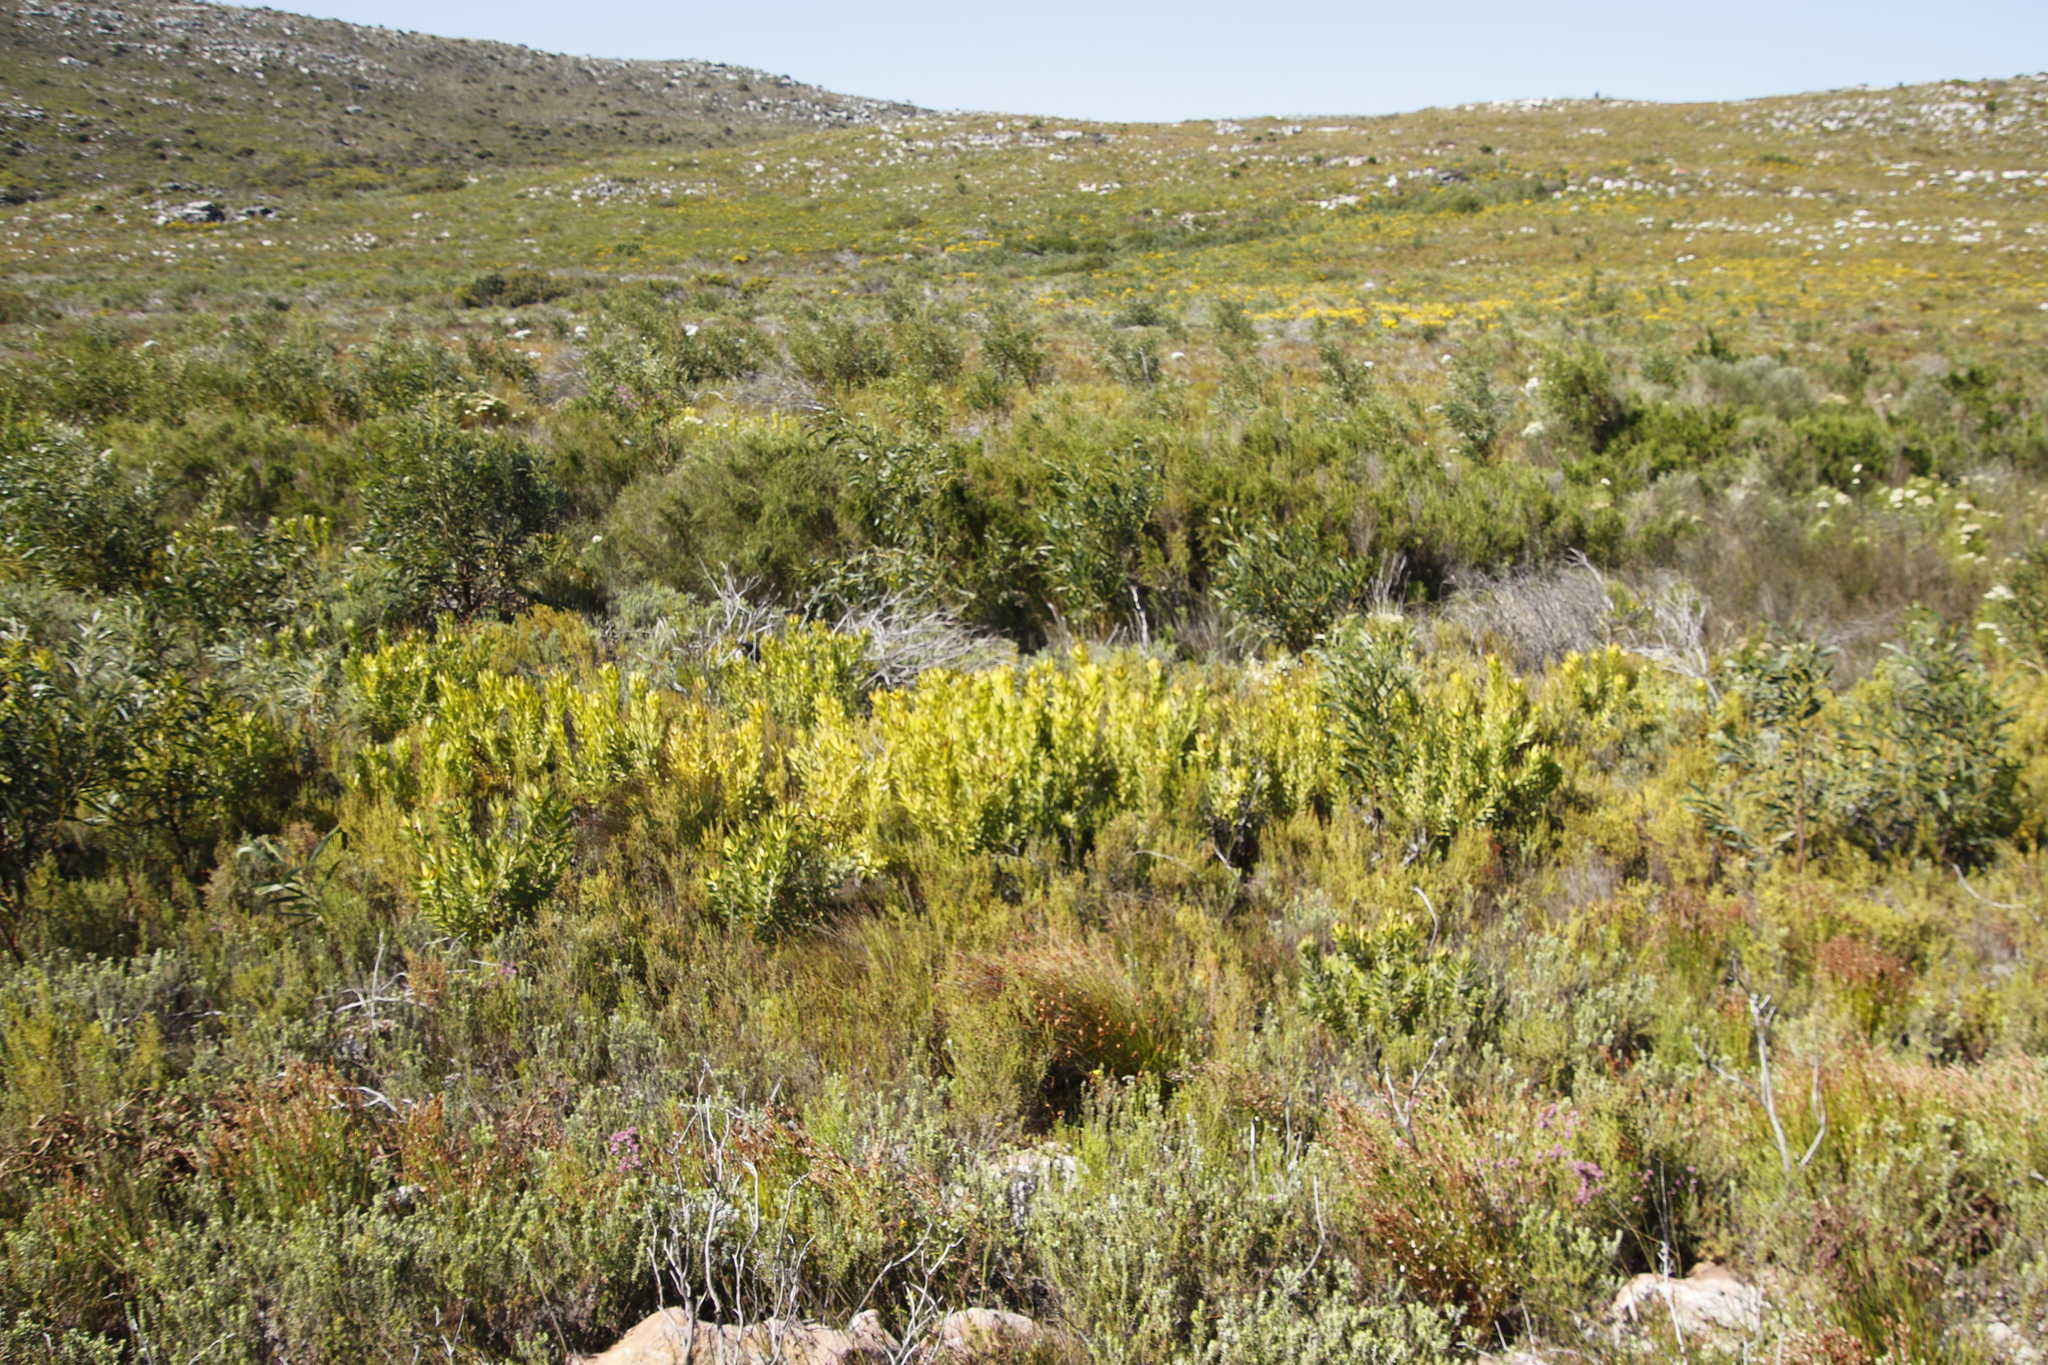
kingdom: Plantae
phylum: Tracheophyta
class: Magnoliopsida
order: Proteales
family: Proteaceae
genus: Leucadendron
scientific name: Leucadendron laureolum
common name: Golden sunshinebush
